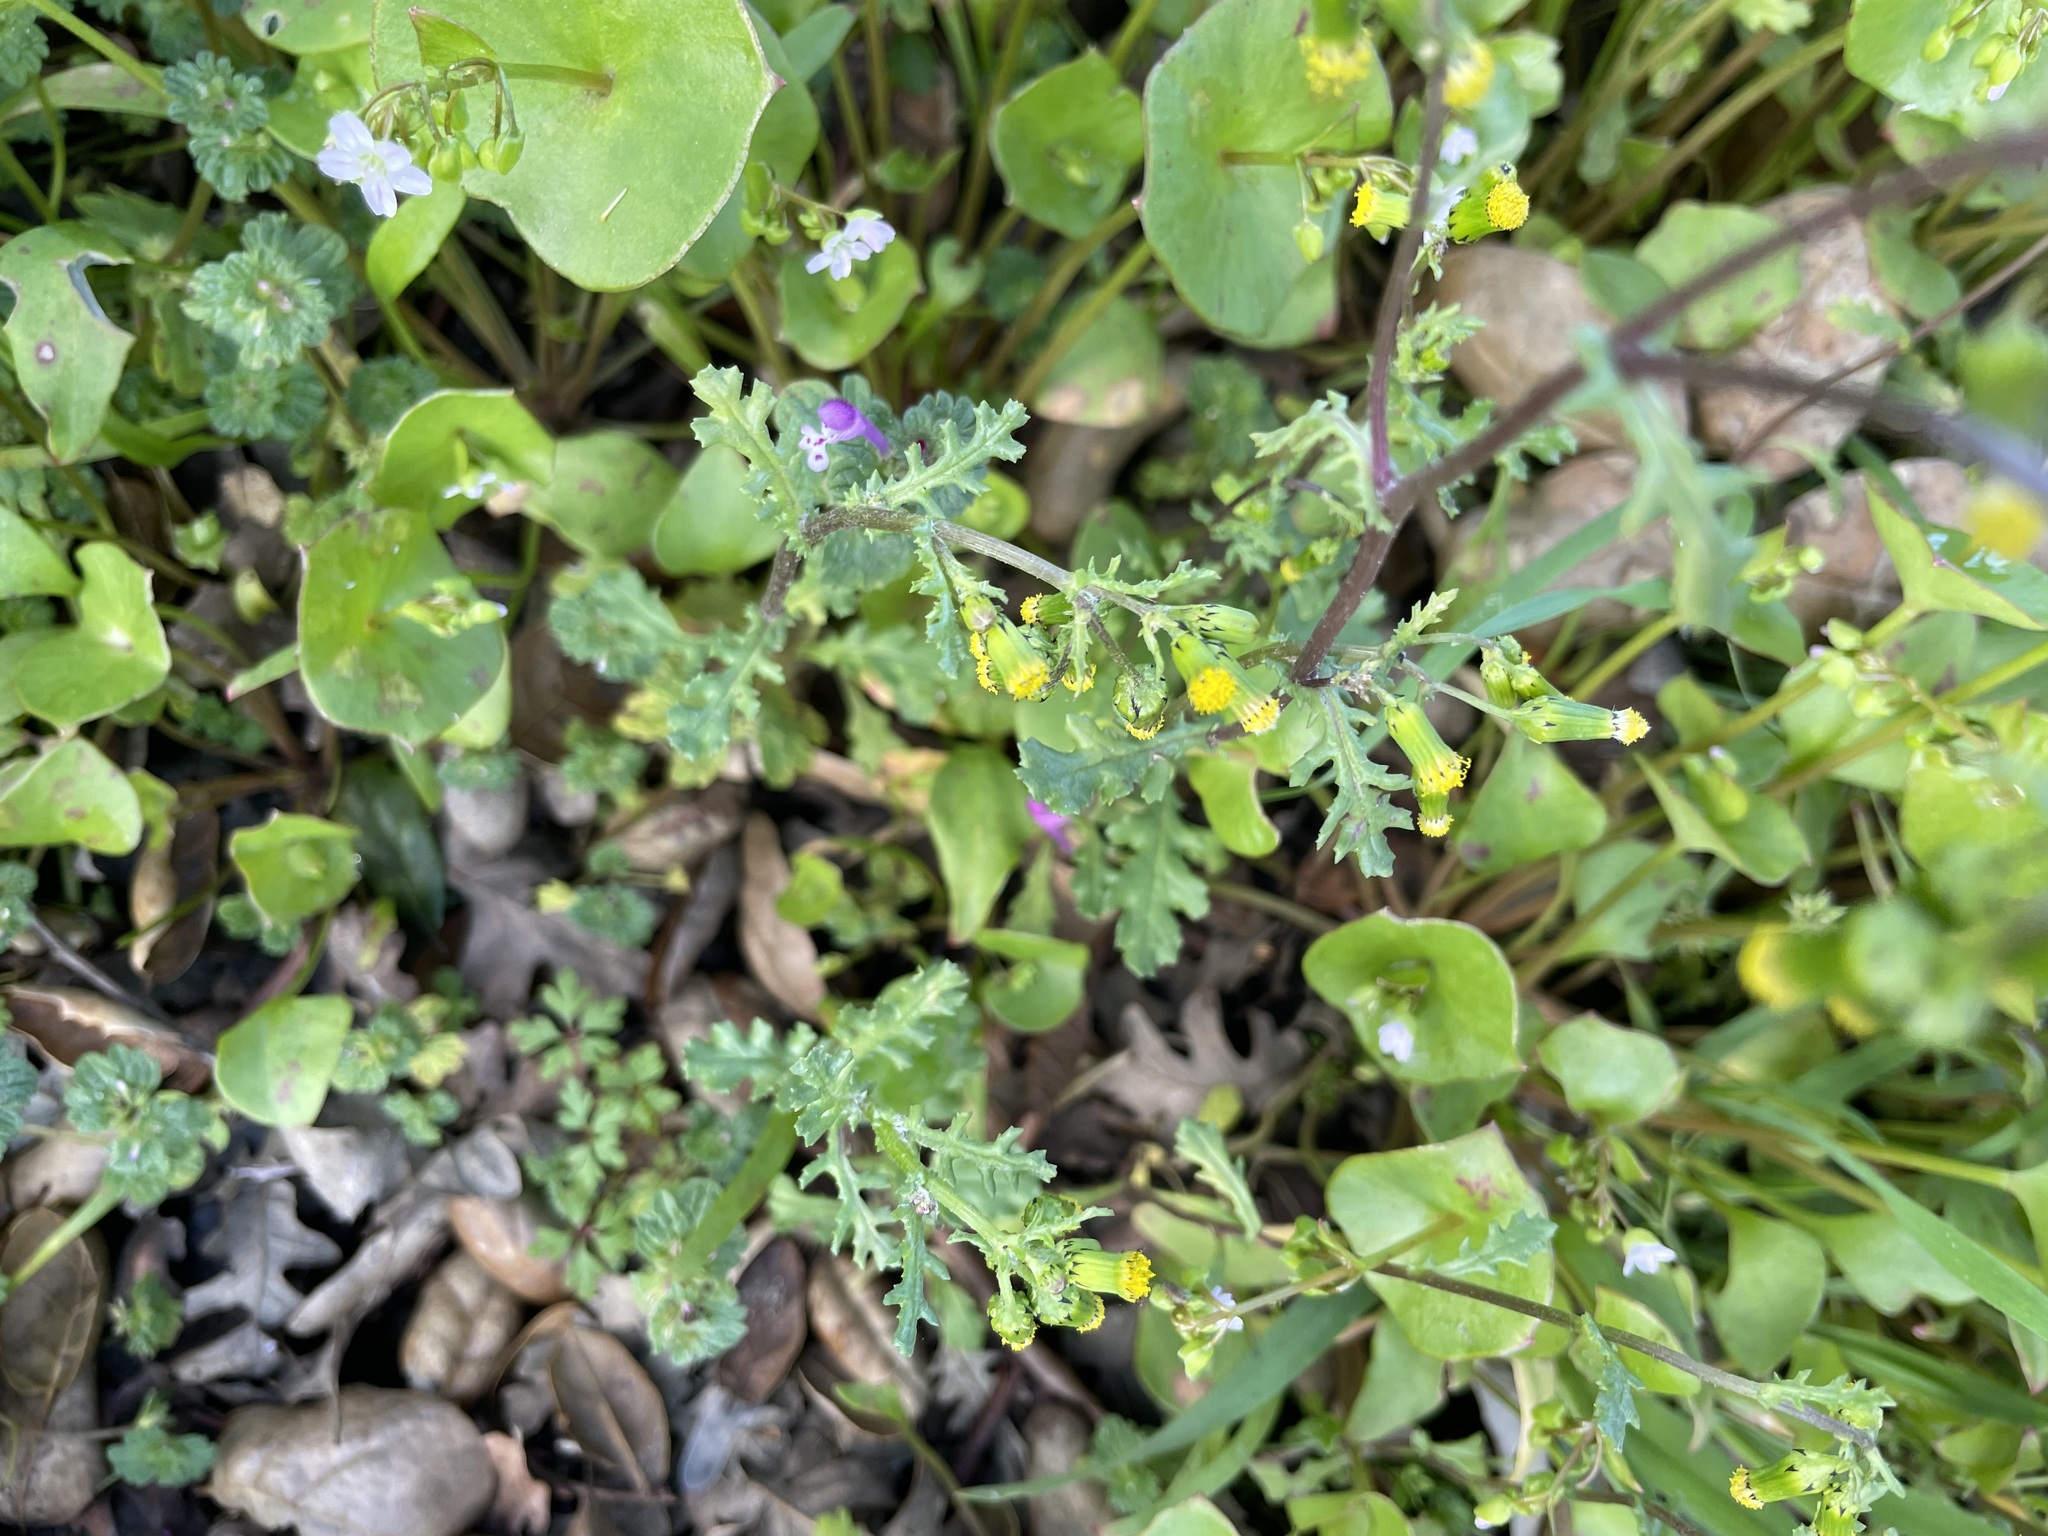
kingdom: Plantae
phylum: Tracheophyta
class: Magnoliopsida
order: Asterales
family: Asteraceae
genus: Senecio
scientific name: Senecio vulgaris
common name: Old-man-in-the-spring
